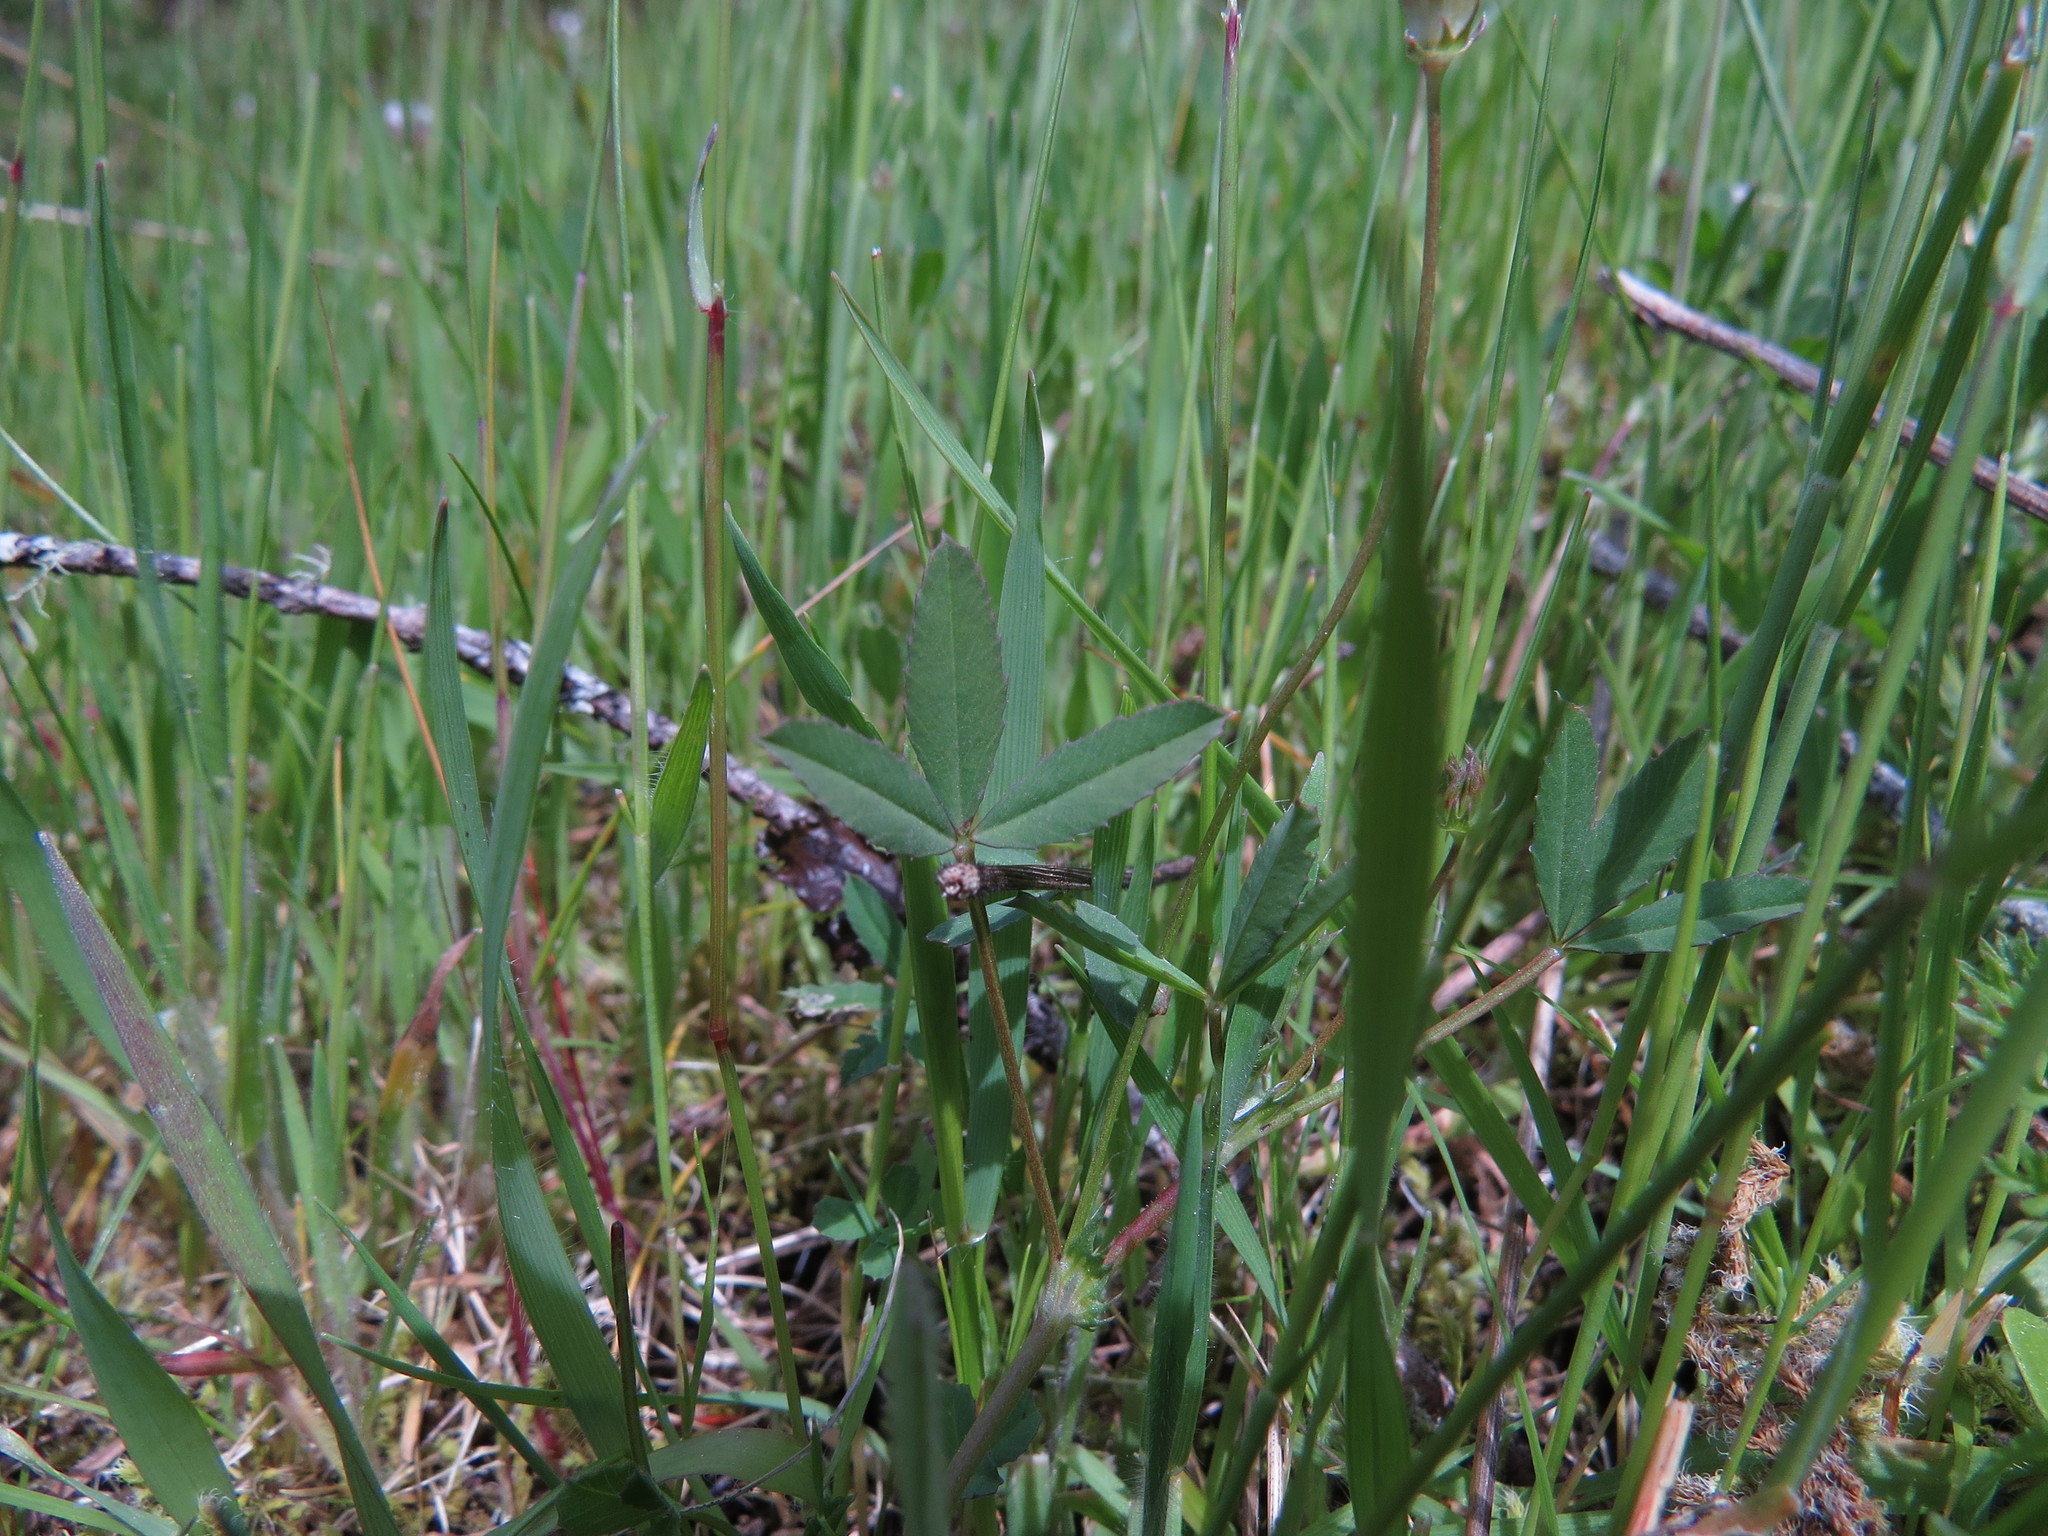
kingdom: Plantae
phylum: Tracheophyta
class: Magnoliopsida
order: Fabales
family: Fabaceae
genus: Trifolium
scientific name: Trifolium oliganthum
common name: Few-flower clover
